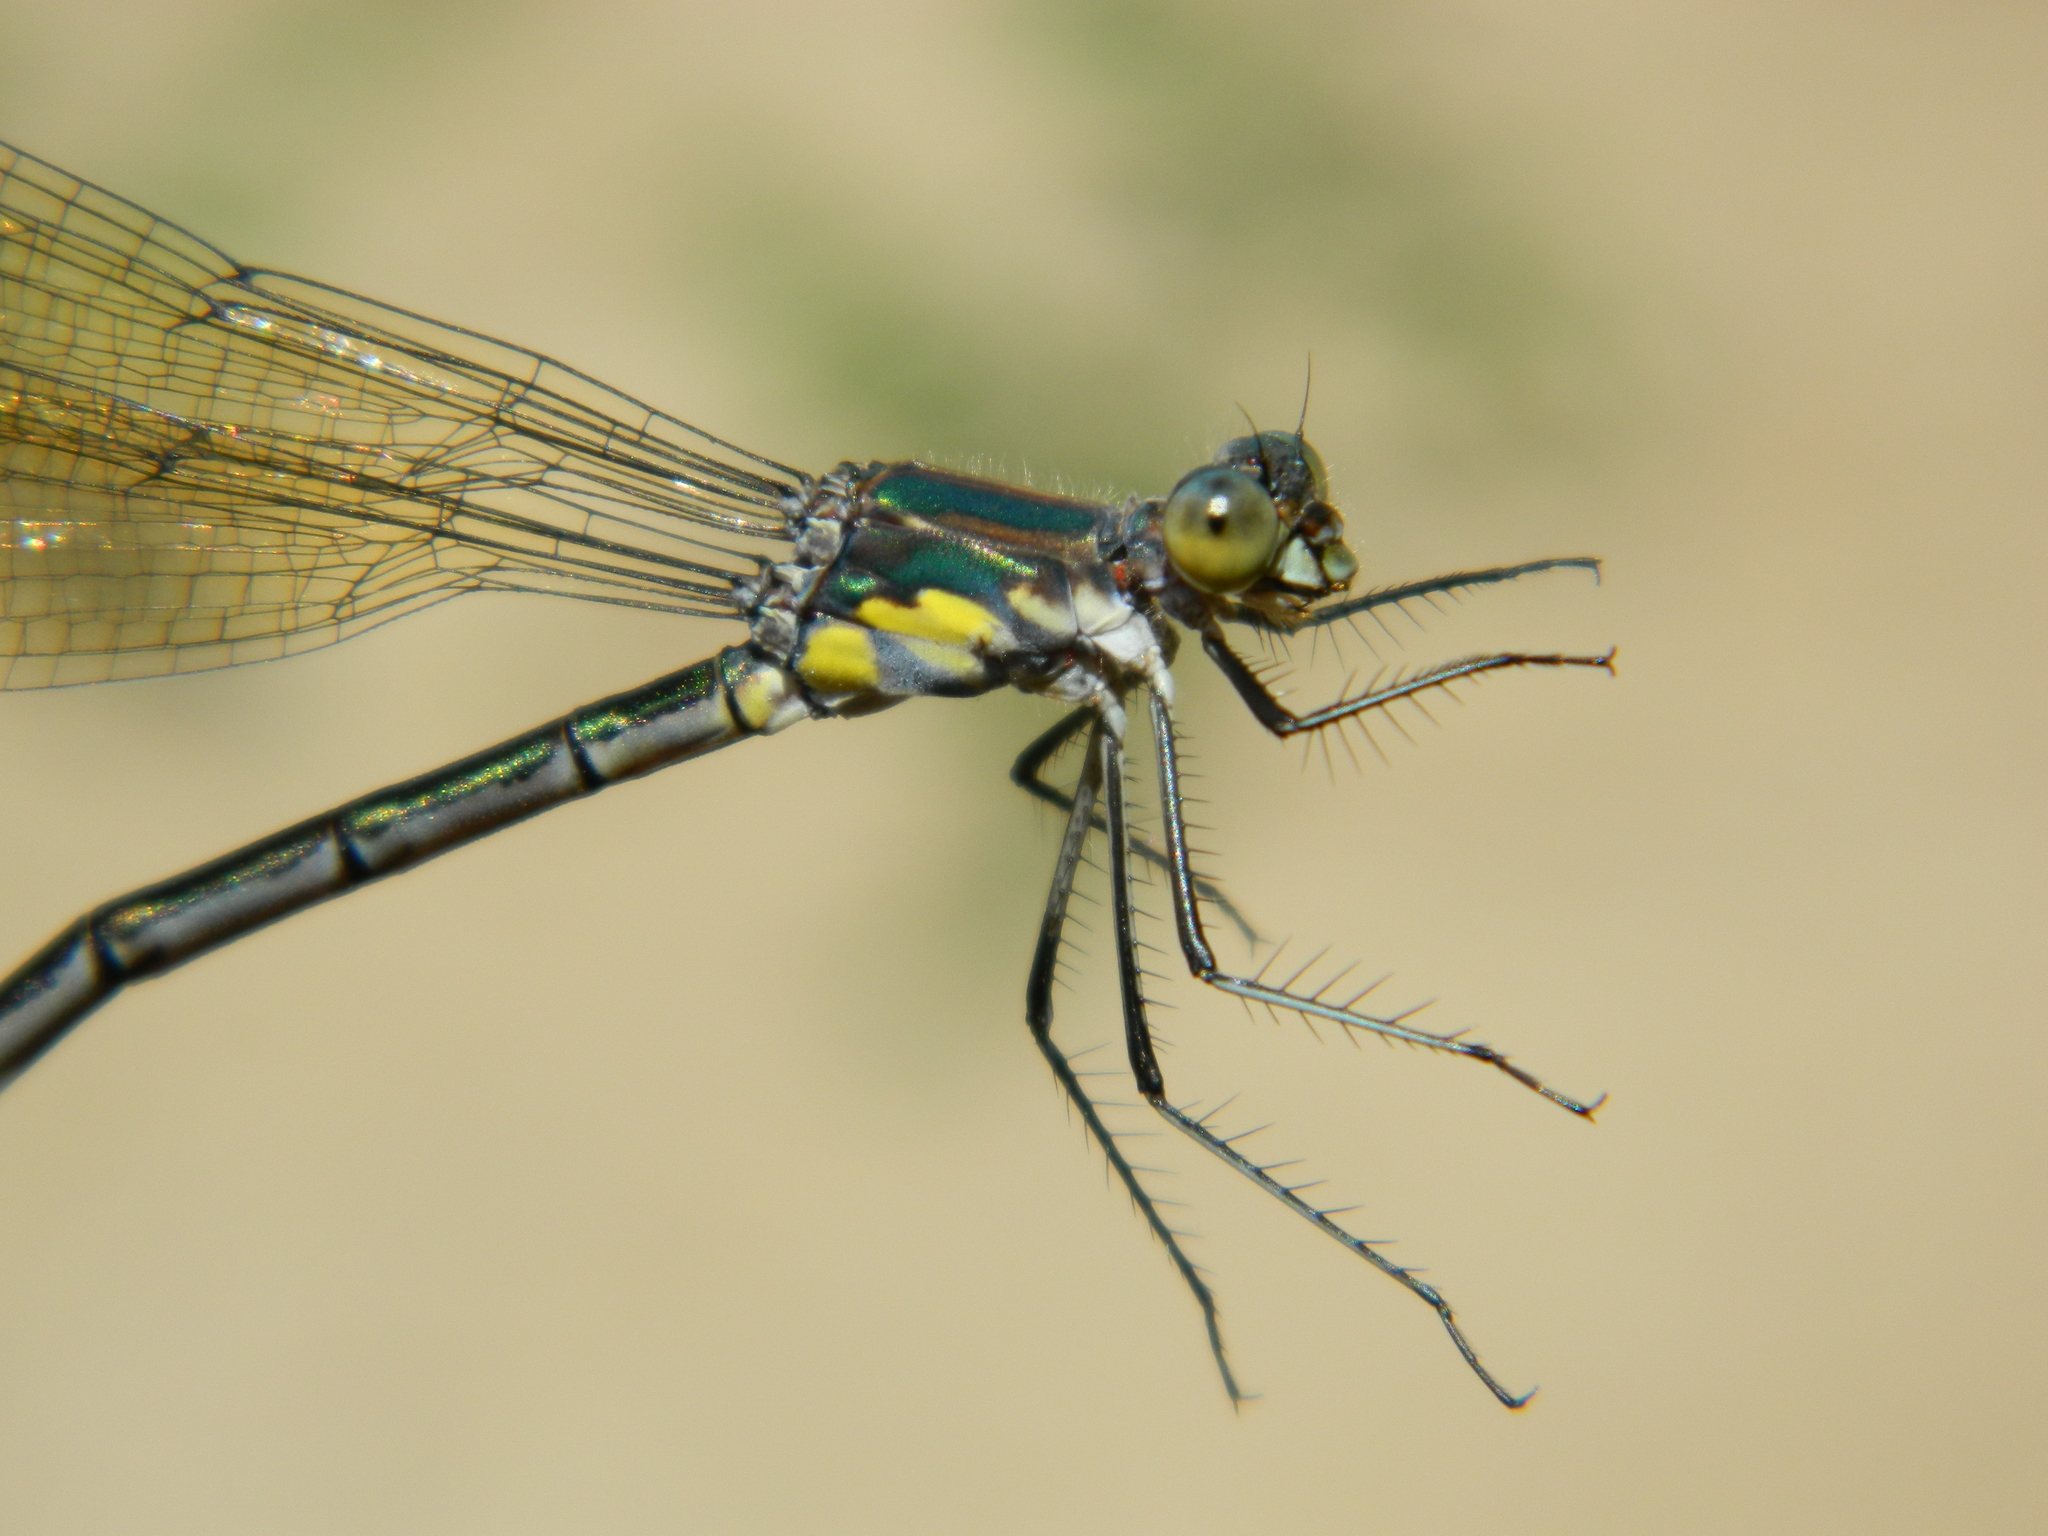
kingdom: Animalia
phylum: Arthropoda
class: Insecta
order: Odonata
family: Lestidae
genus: Lestes
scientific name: Lestes eurinus
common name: Amber-winged spreadwing
